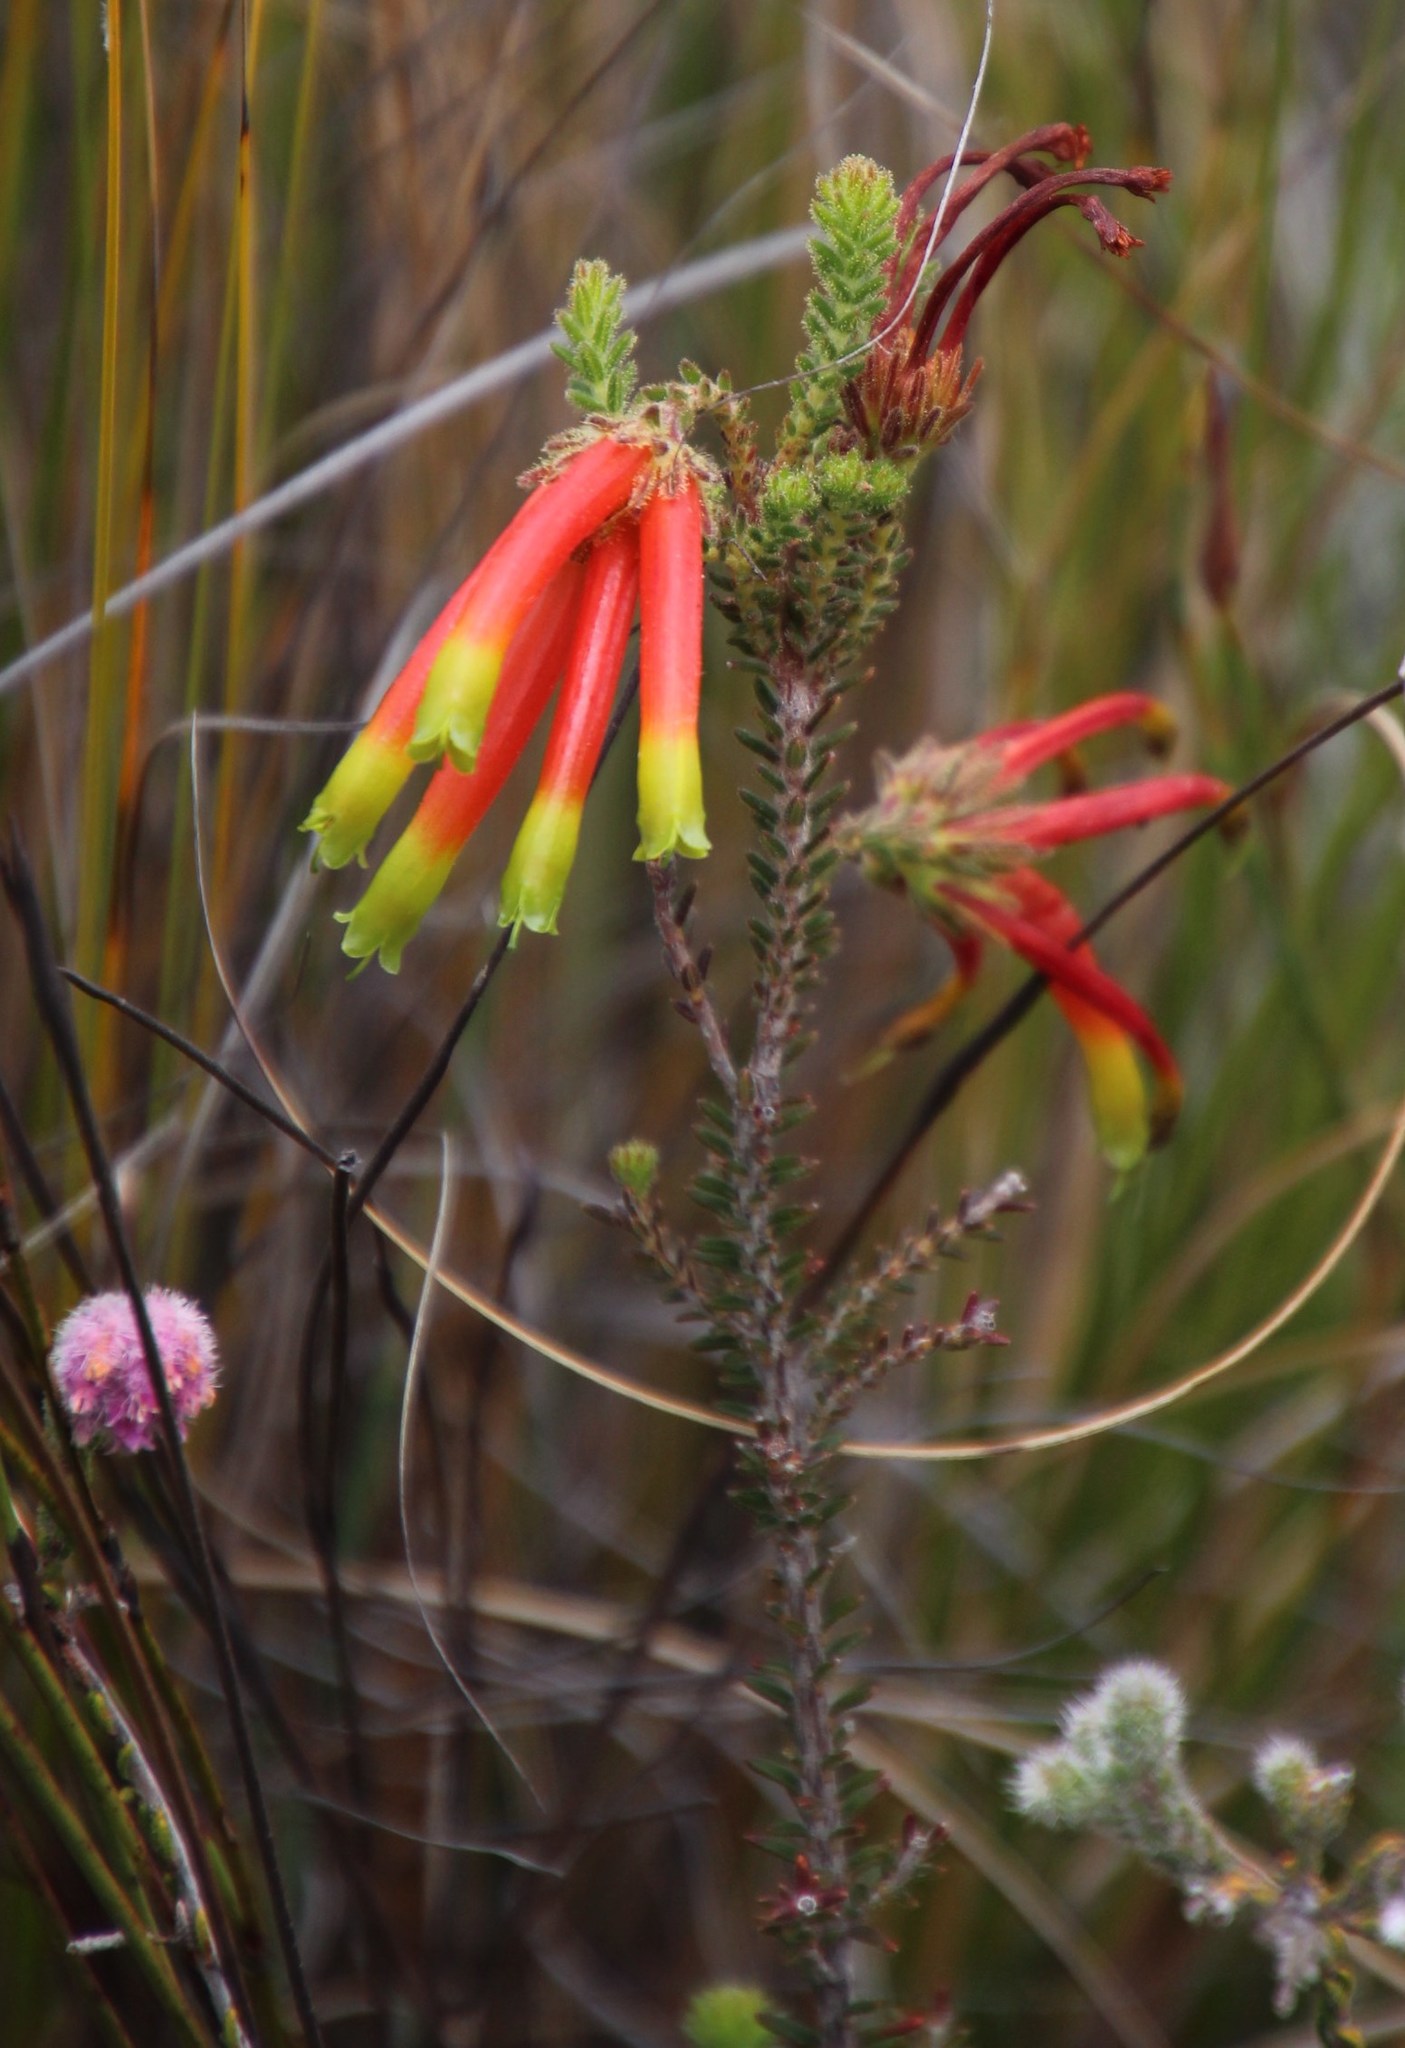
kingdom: Plantae
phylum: Tracheophyta
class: Magnoliopsida
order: Ericales
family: Ericaceae
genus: Erica
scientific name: Erica croceovirens
